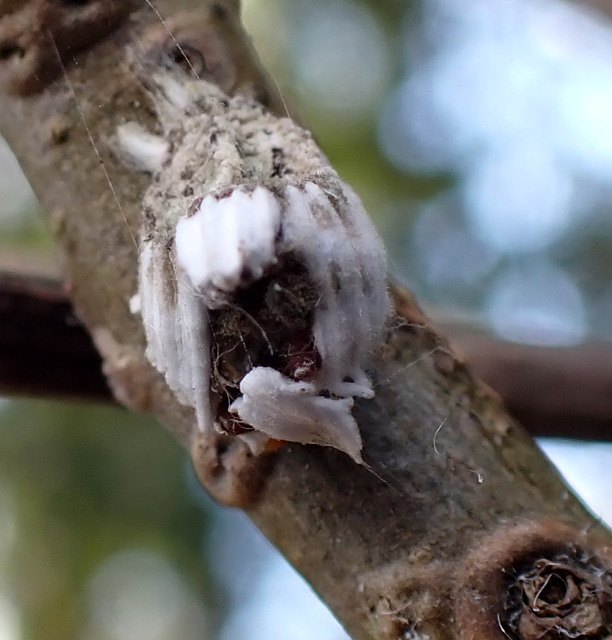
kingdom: Animalia
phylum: Arthropoda
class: Insecta
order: Hemiptera
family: Margarodidae
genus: Icerya
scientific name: Icerya purchasi
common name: Cottony cushion scale
